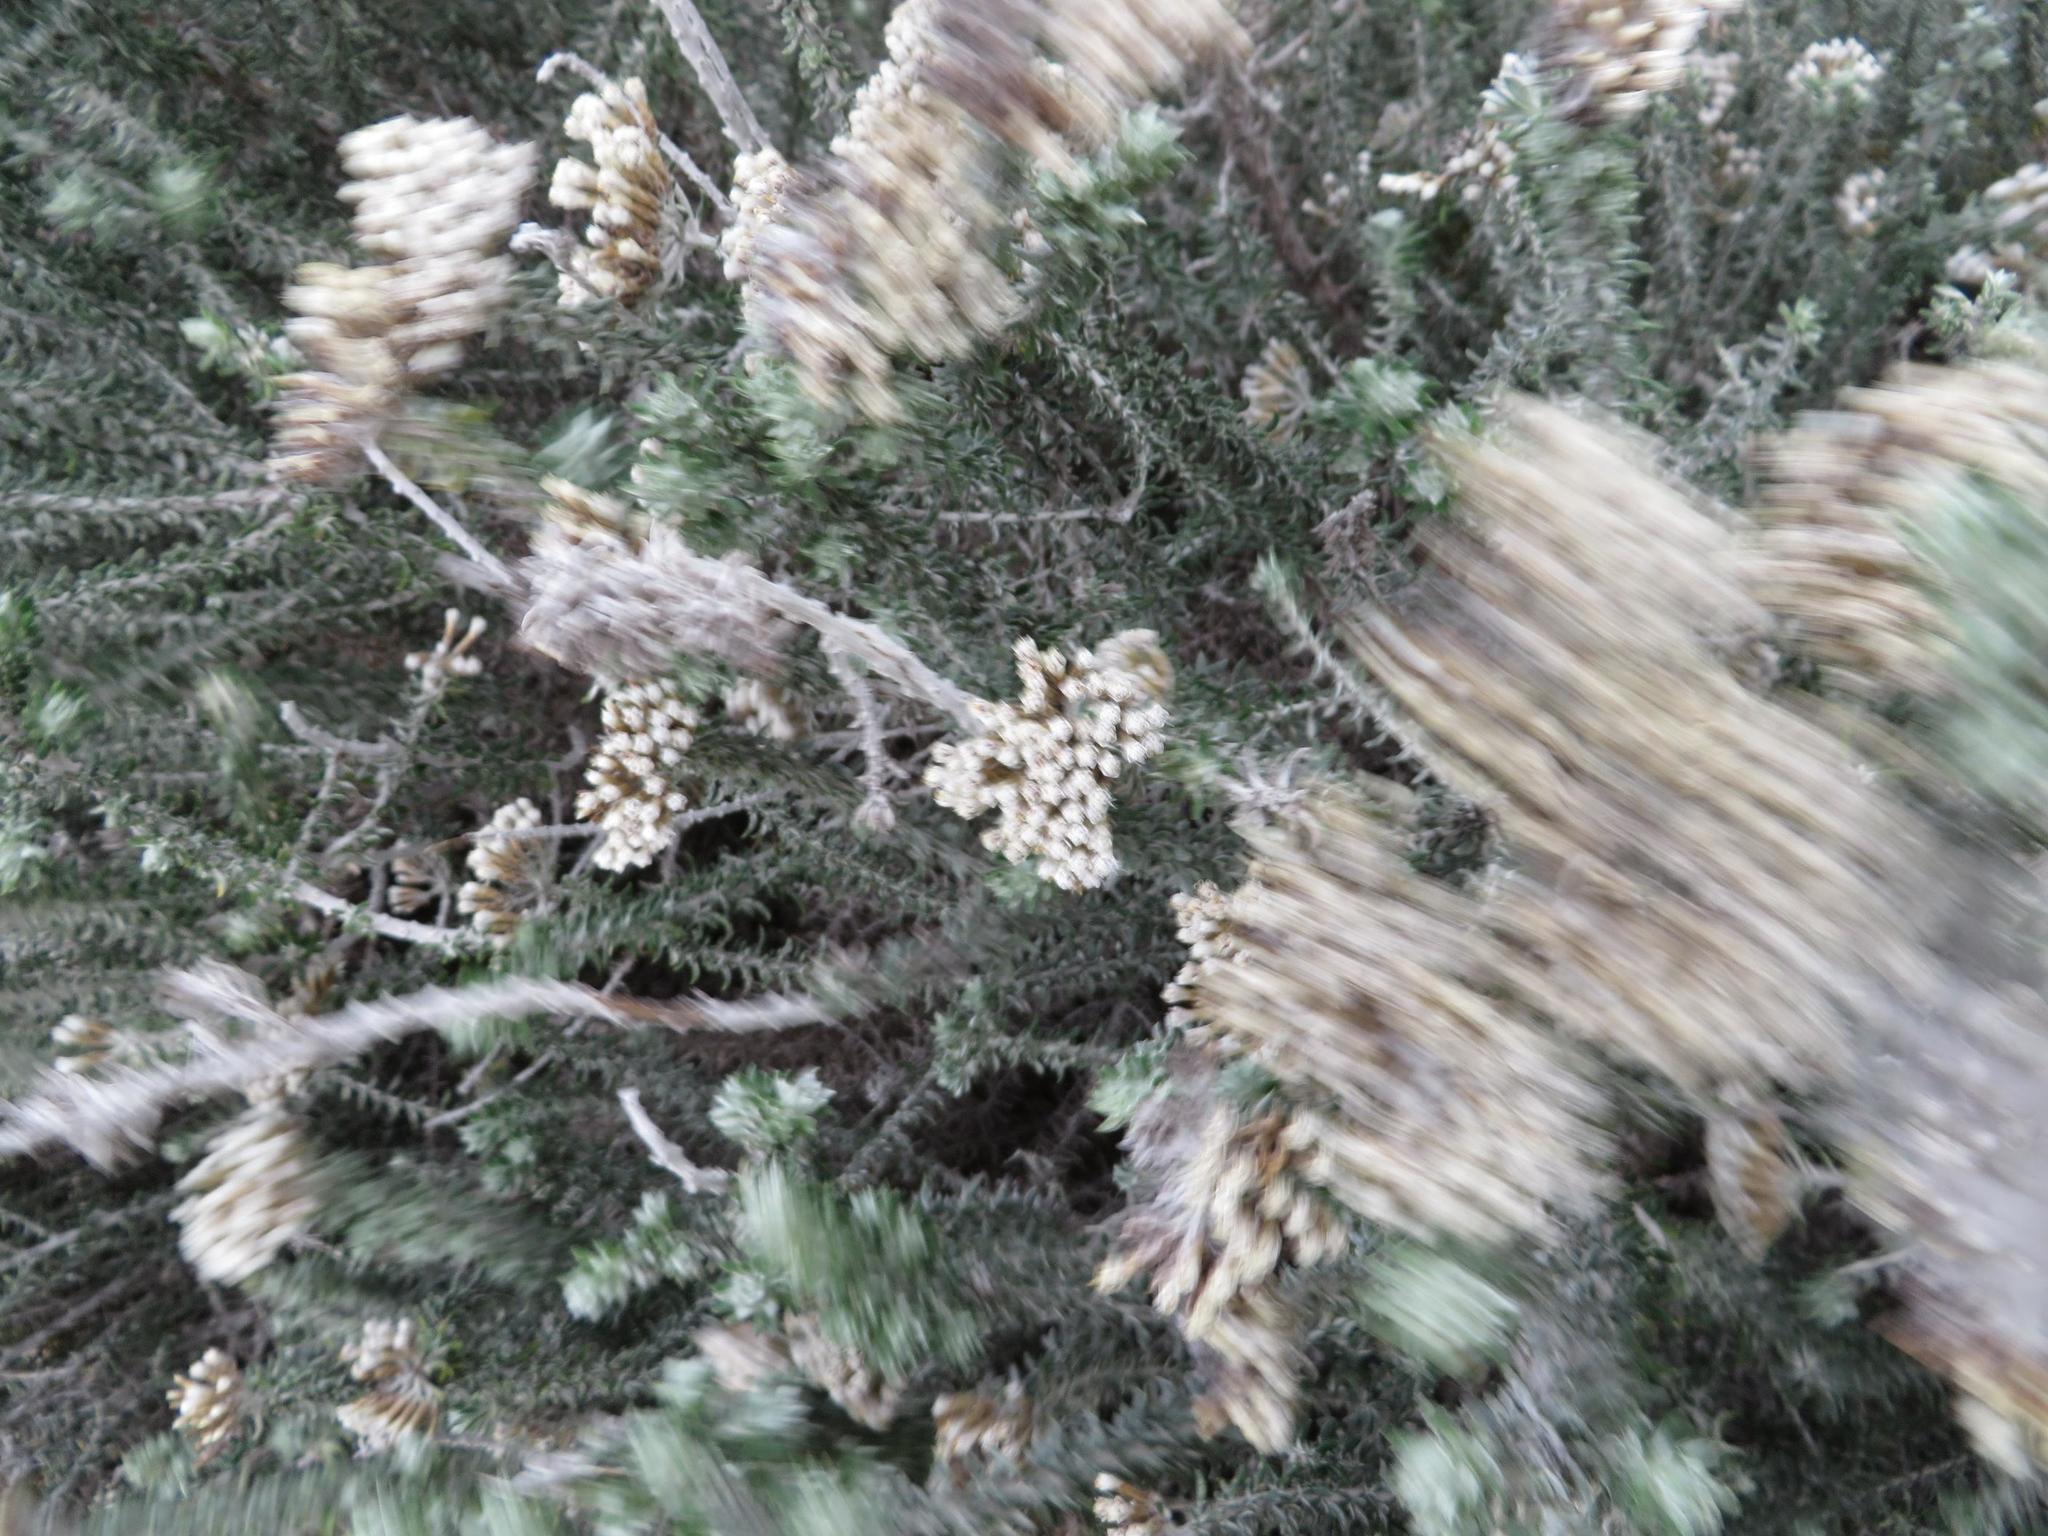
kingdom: Plantae
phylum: Tracheophyta
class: Magnoliopsida
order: Asterales
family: Asteraceae
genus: Metalasia
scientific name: Metalasia muricata
